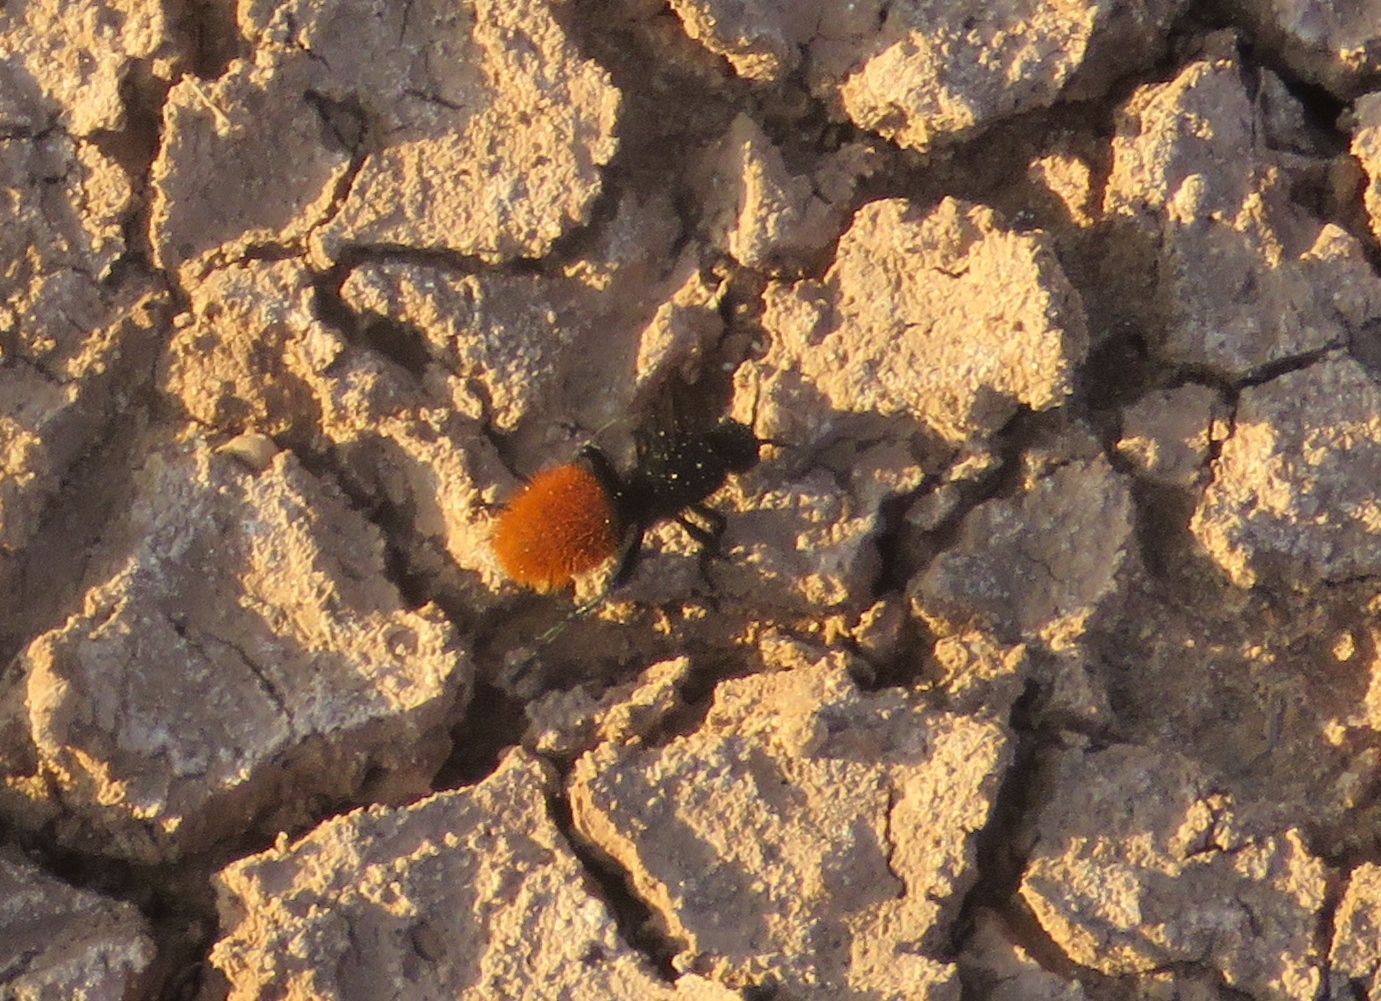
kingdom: Animalia
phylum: Arthropoda
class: Insecta
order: Hymenoptera
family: Mutillidae
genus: Dasymutilla
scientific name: Dasymutilla
